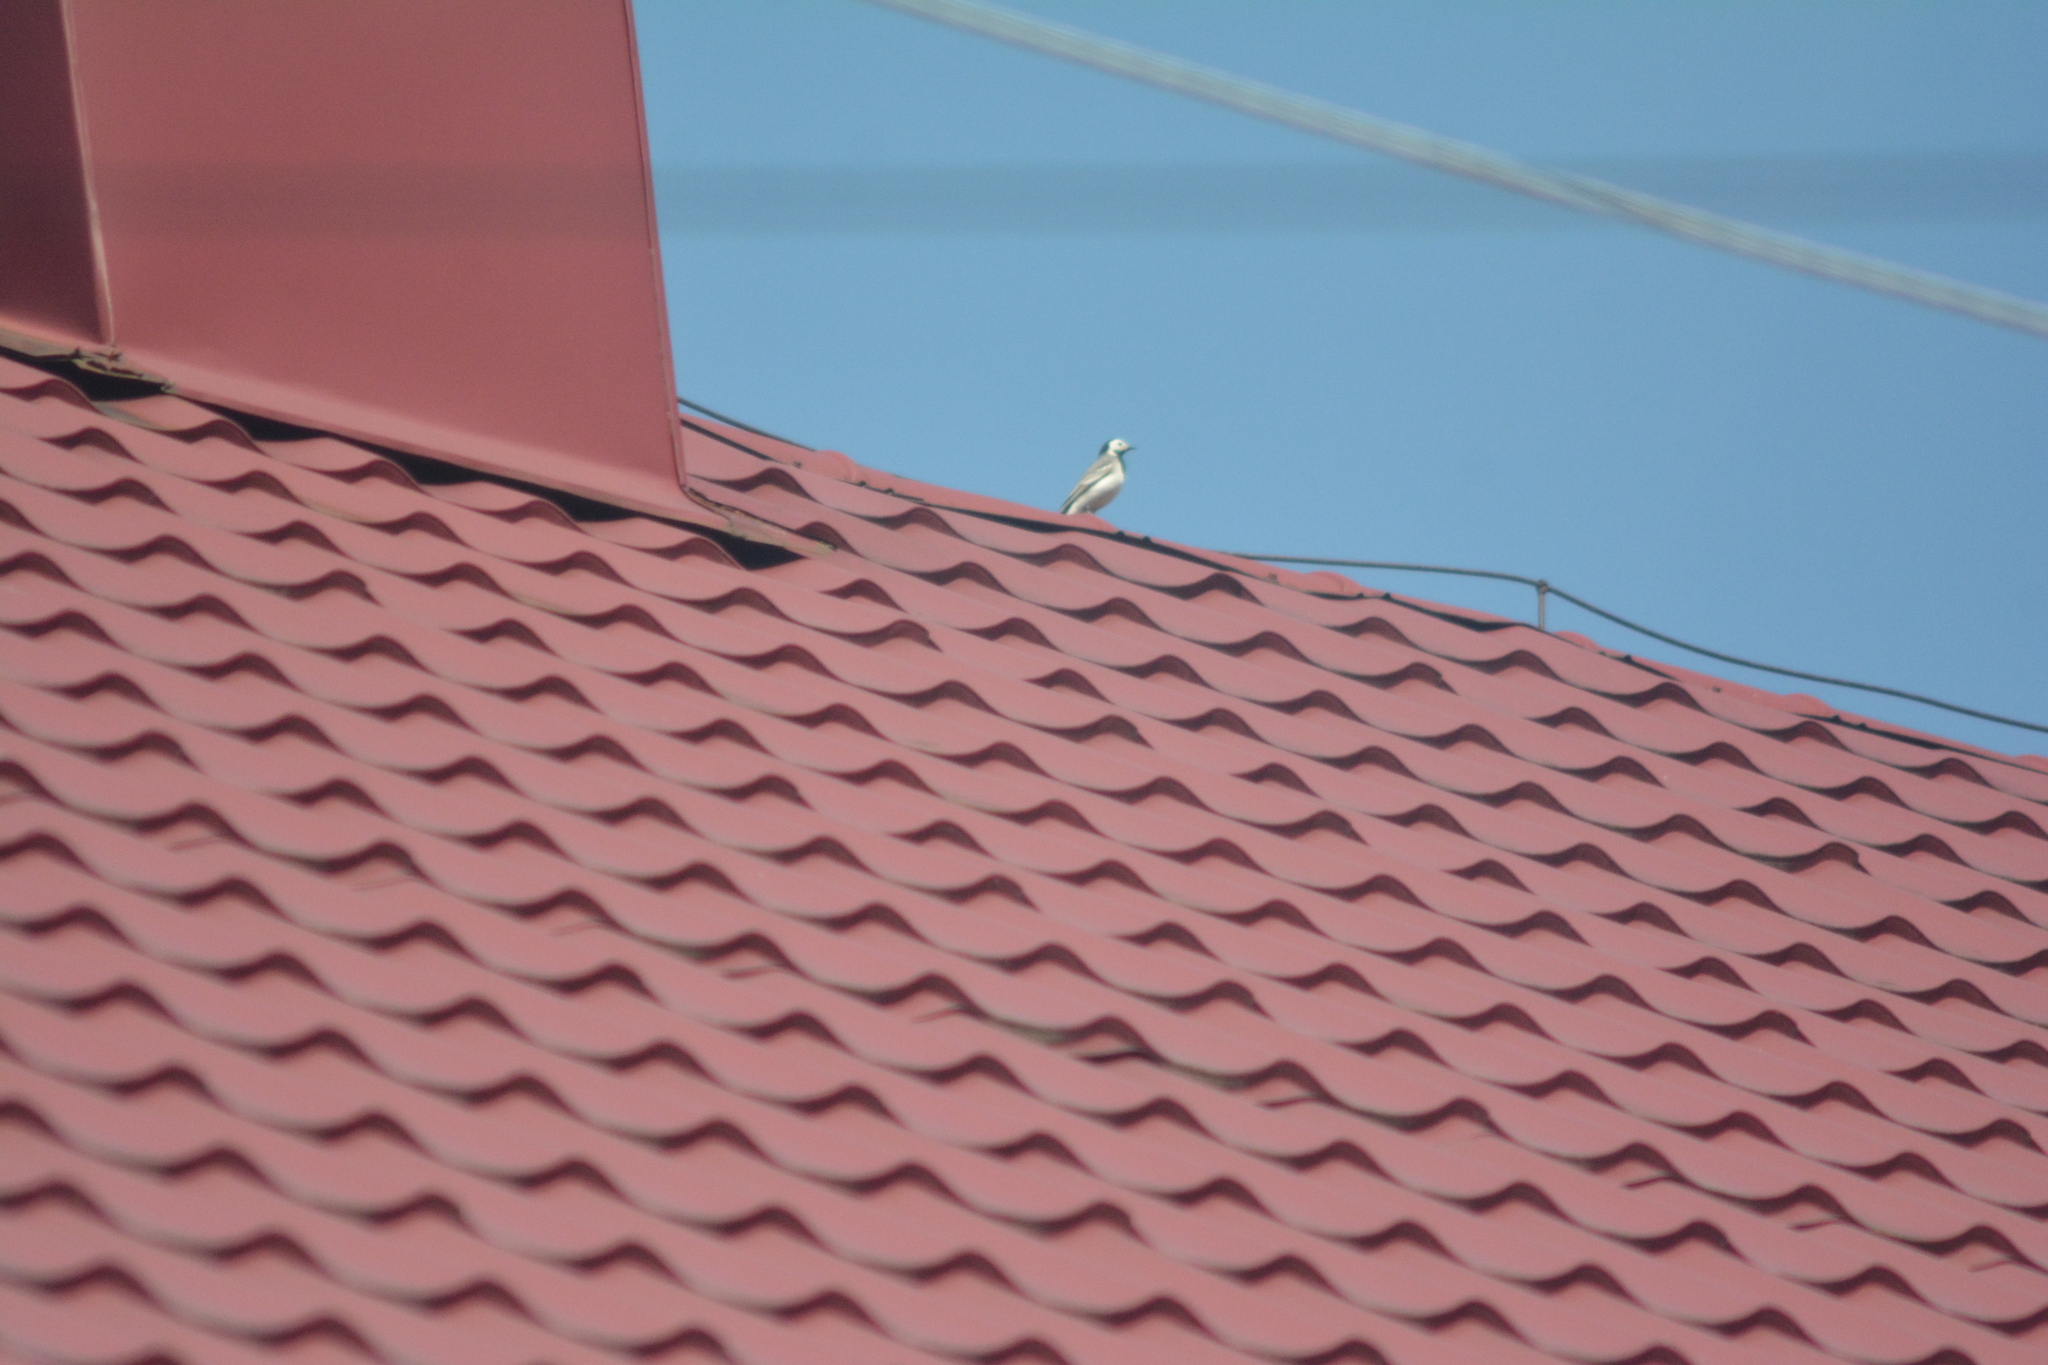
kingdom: Animalia
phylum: Chordata
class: Aves
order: Passeriformes
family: Motacillidae
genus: Motacilla
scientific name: Motacilla alba
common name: White wagtail
